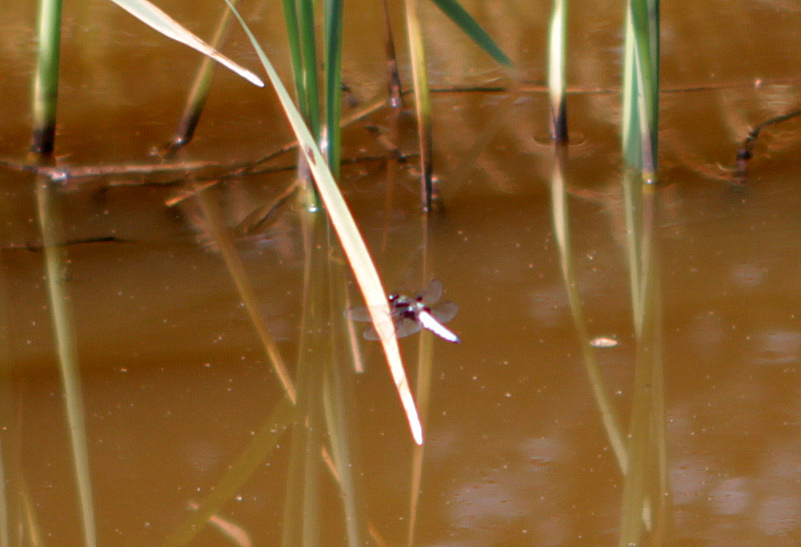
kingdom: Animalia
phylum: Arthropoda
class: Insecta
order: Odonata
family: Libellulidae
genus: Libellula
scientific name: Libellula depressa
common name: Broad-bodied chaser
